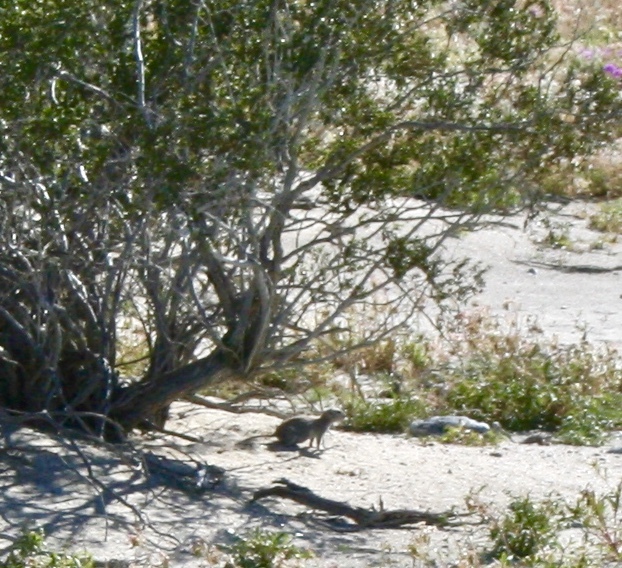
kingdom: Animalia
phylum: Chordata
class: Mammalia
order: Rodentia
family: Sciuridae
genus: Xerospermophilus
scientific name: Xerospermophilus tereticaudus
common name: Round-tailed ground squirrel
